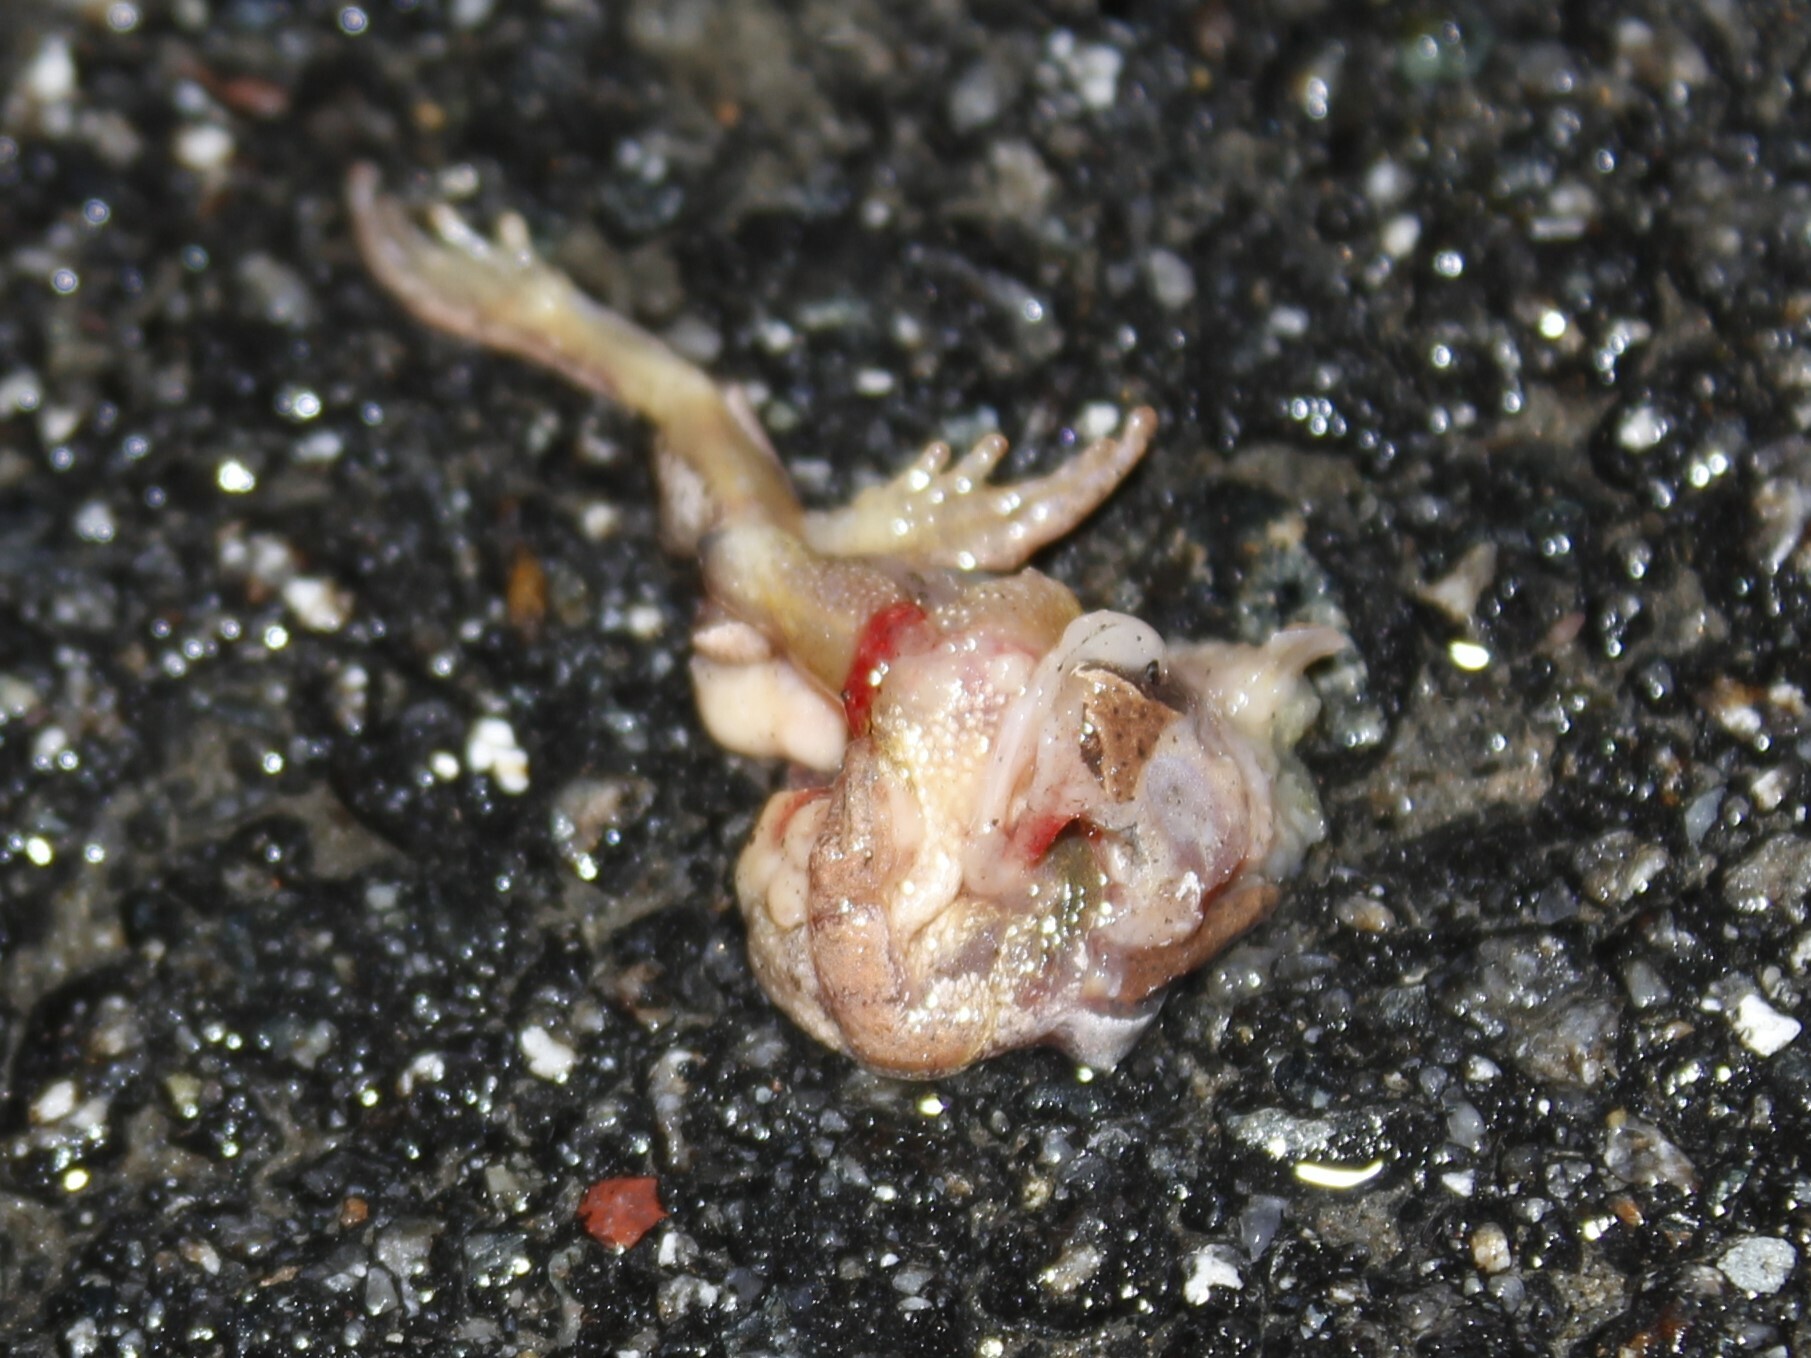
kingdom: Animalia
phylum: Chordata
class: Amphibia
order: Anura
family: Hylidae
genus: Pseudacris
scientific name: Pseudacris crucifer
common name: Spring peeper
